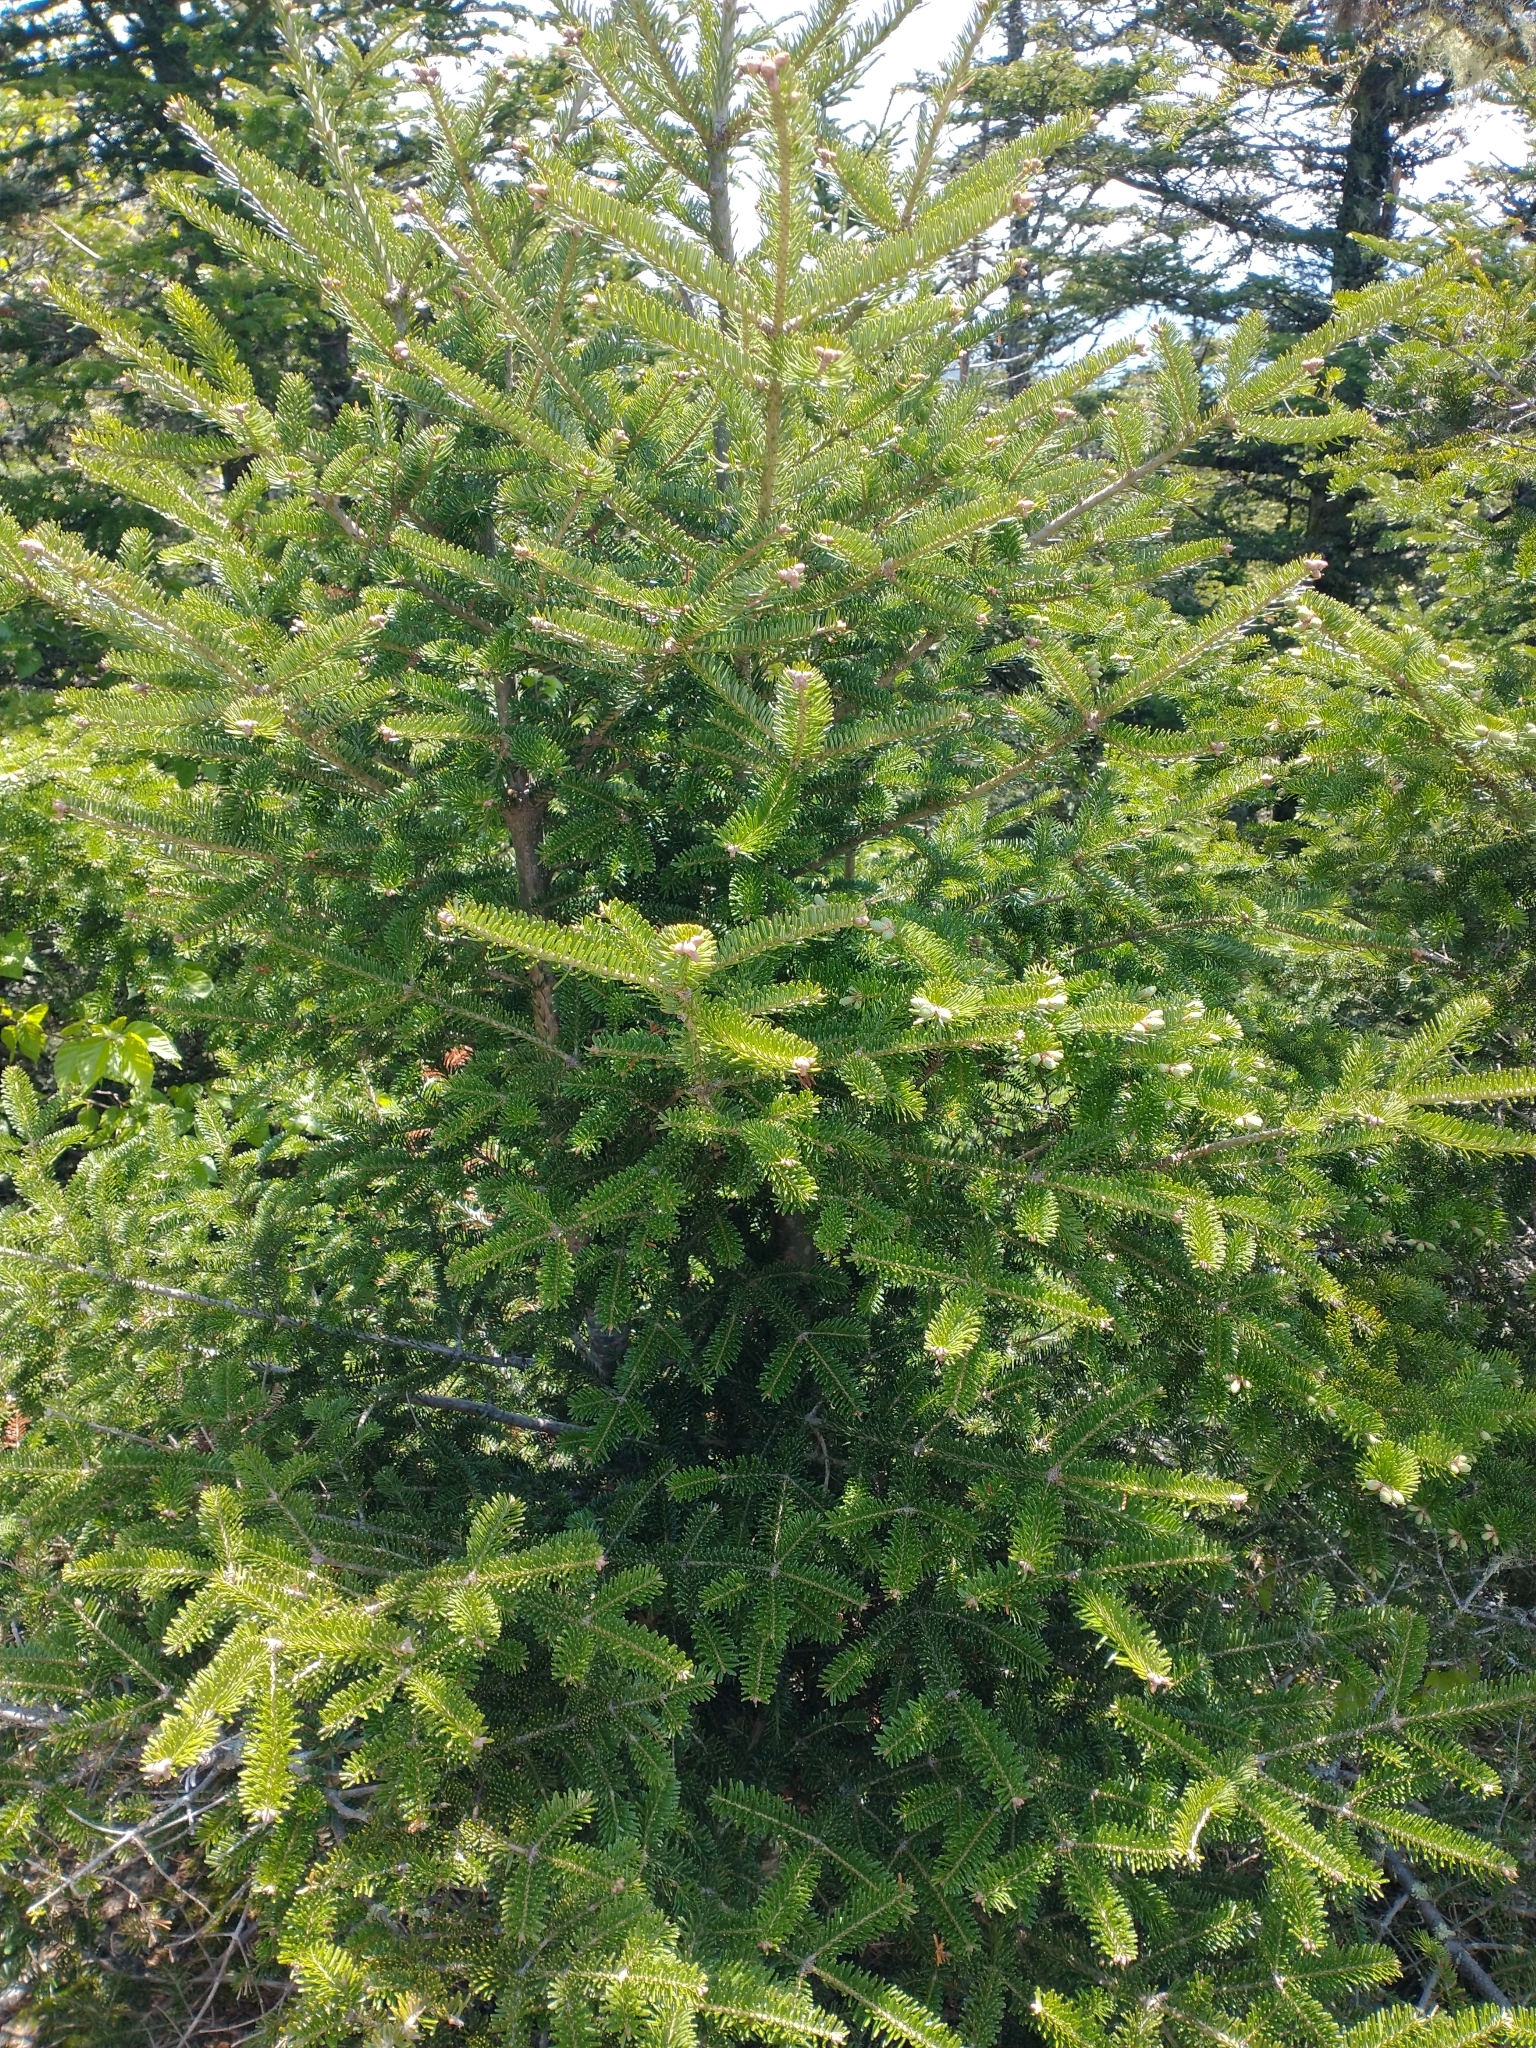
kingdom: Plantae
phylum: Tracheophyta
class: Pinopsida
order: Pinales
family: Pinaceae
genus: Abies
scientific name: Abies balsamea
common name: Balsam fir
